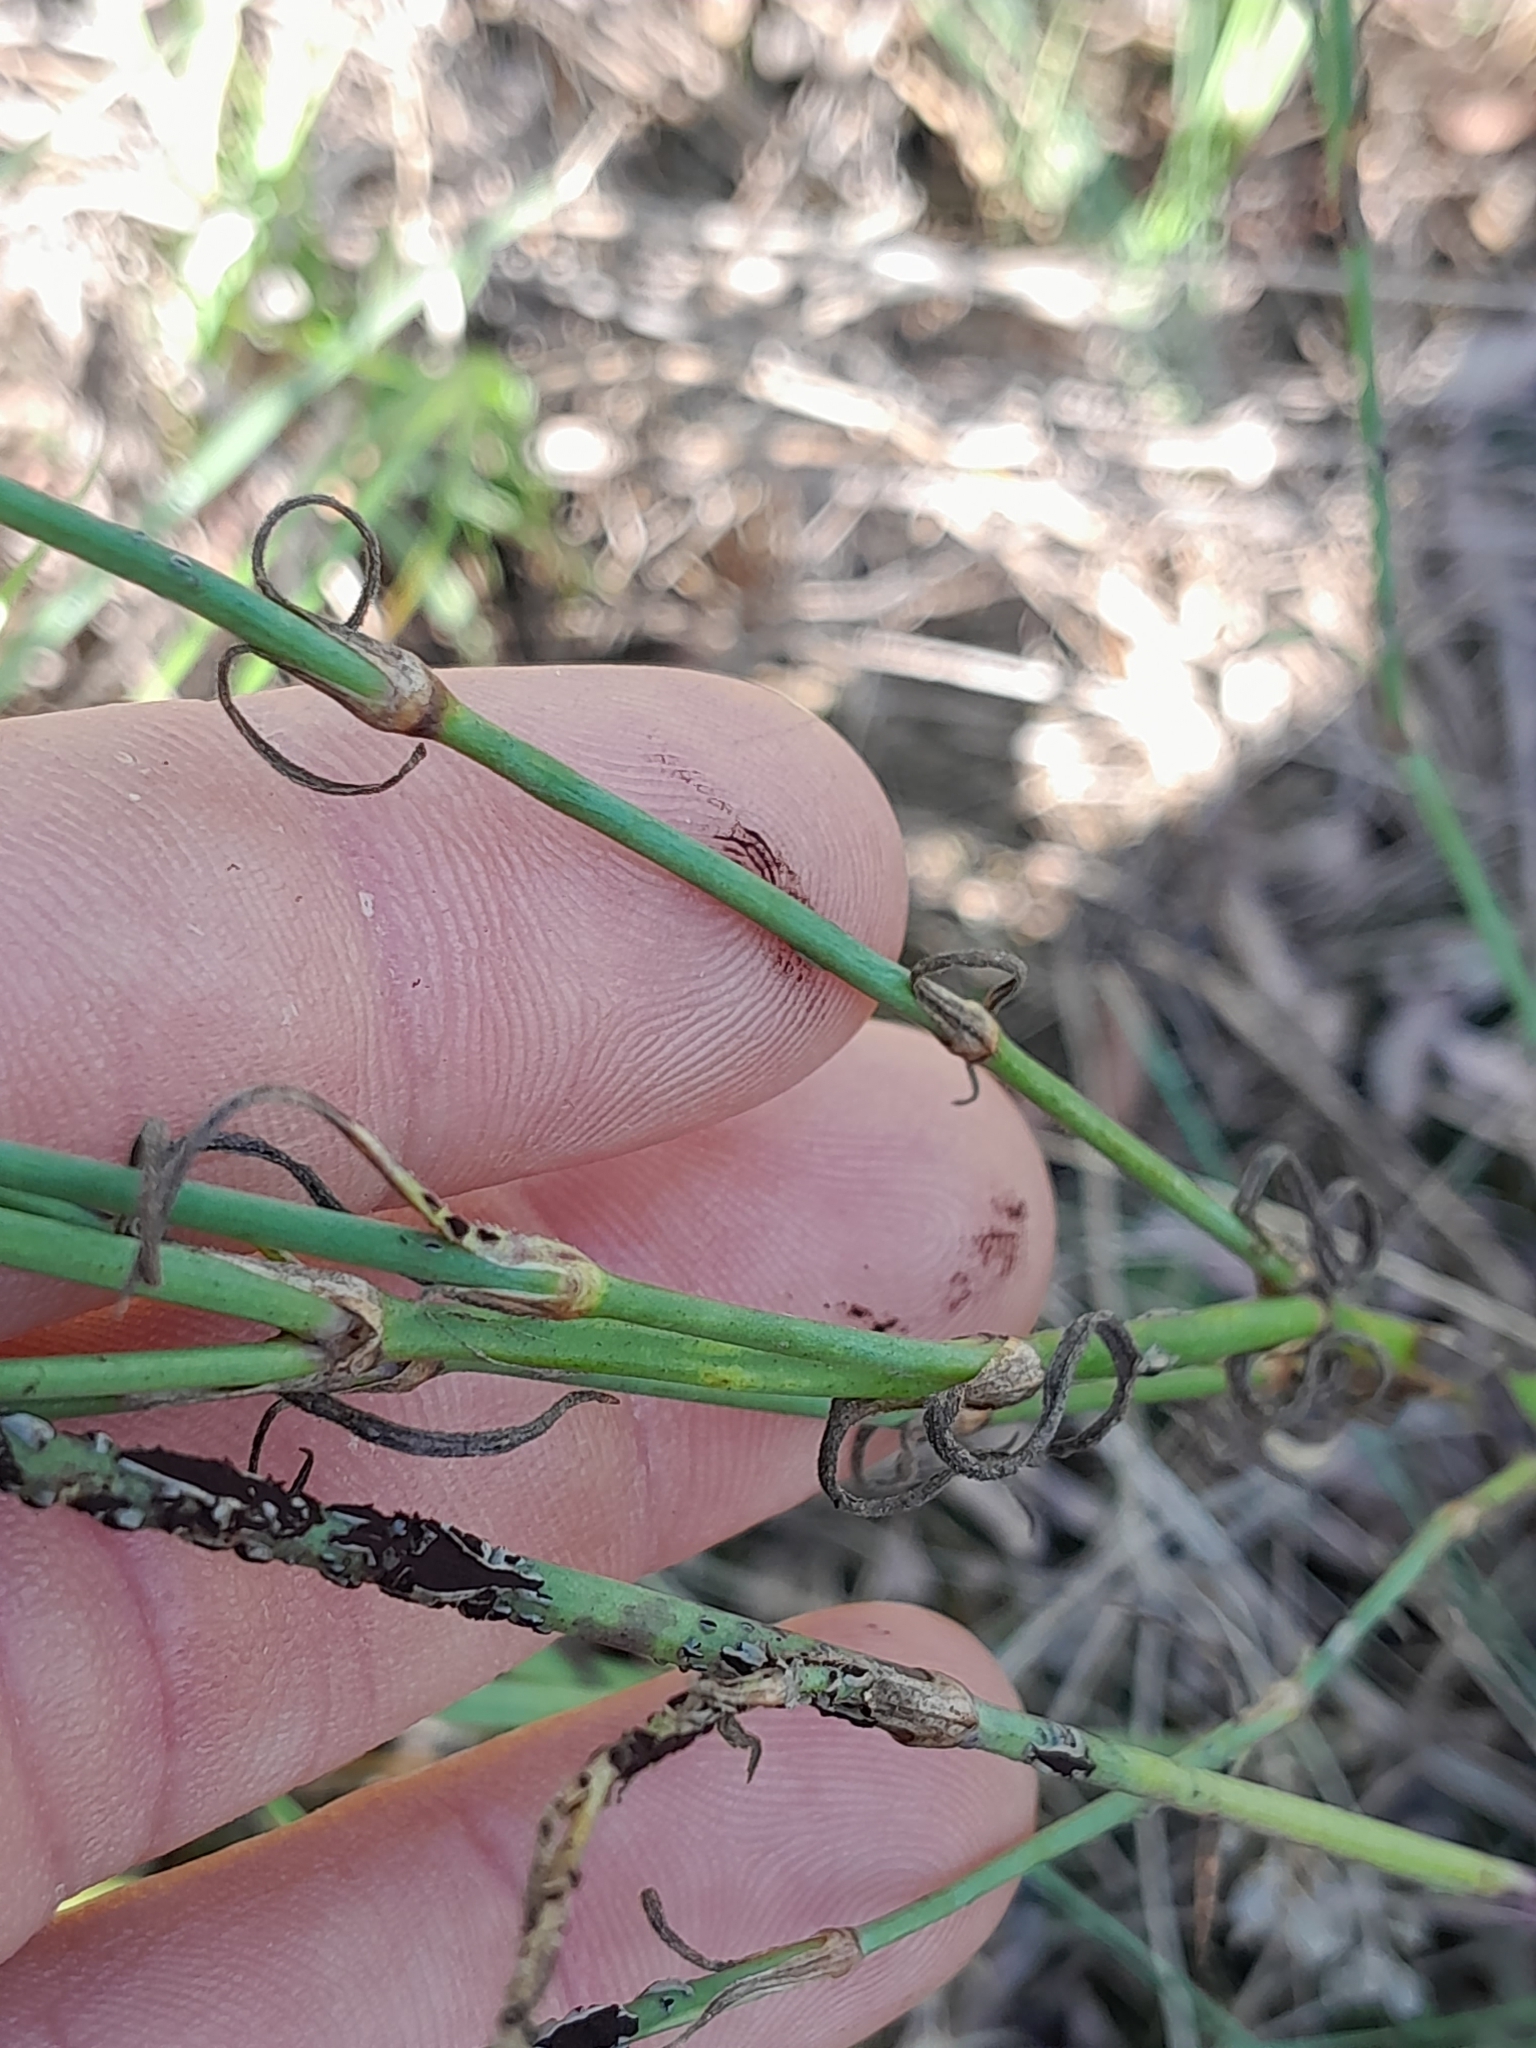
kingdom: Plantae
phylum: Tracheophyta
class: Magnoliopsida
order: Caryophyllales
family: Caryophyllaceae
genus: Petrorhagia
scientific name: Petrorhagia prolifera
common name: Proliferous pink
